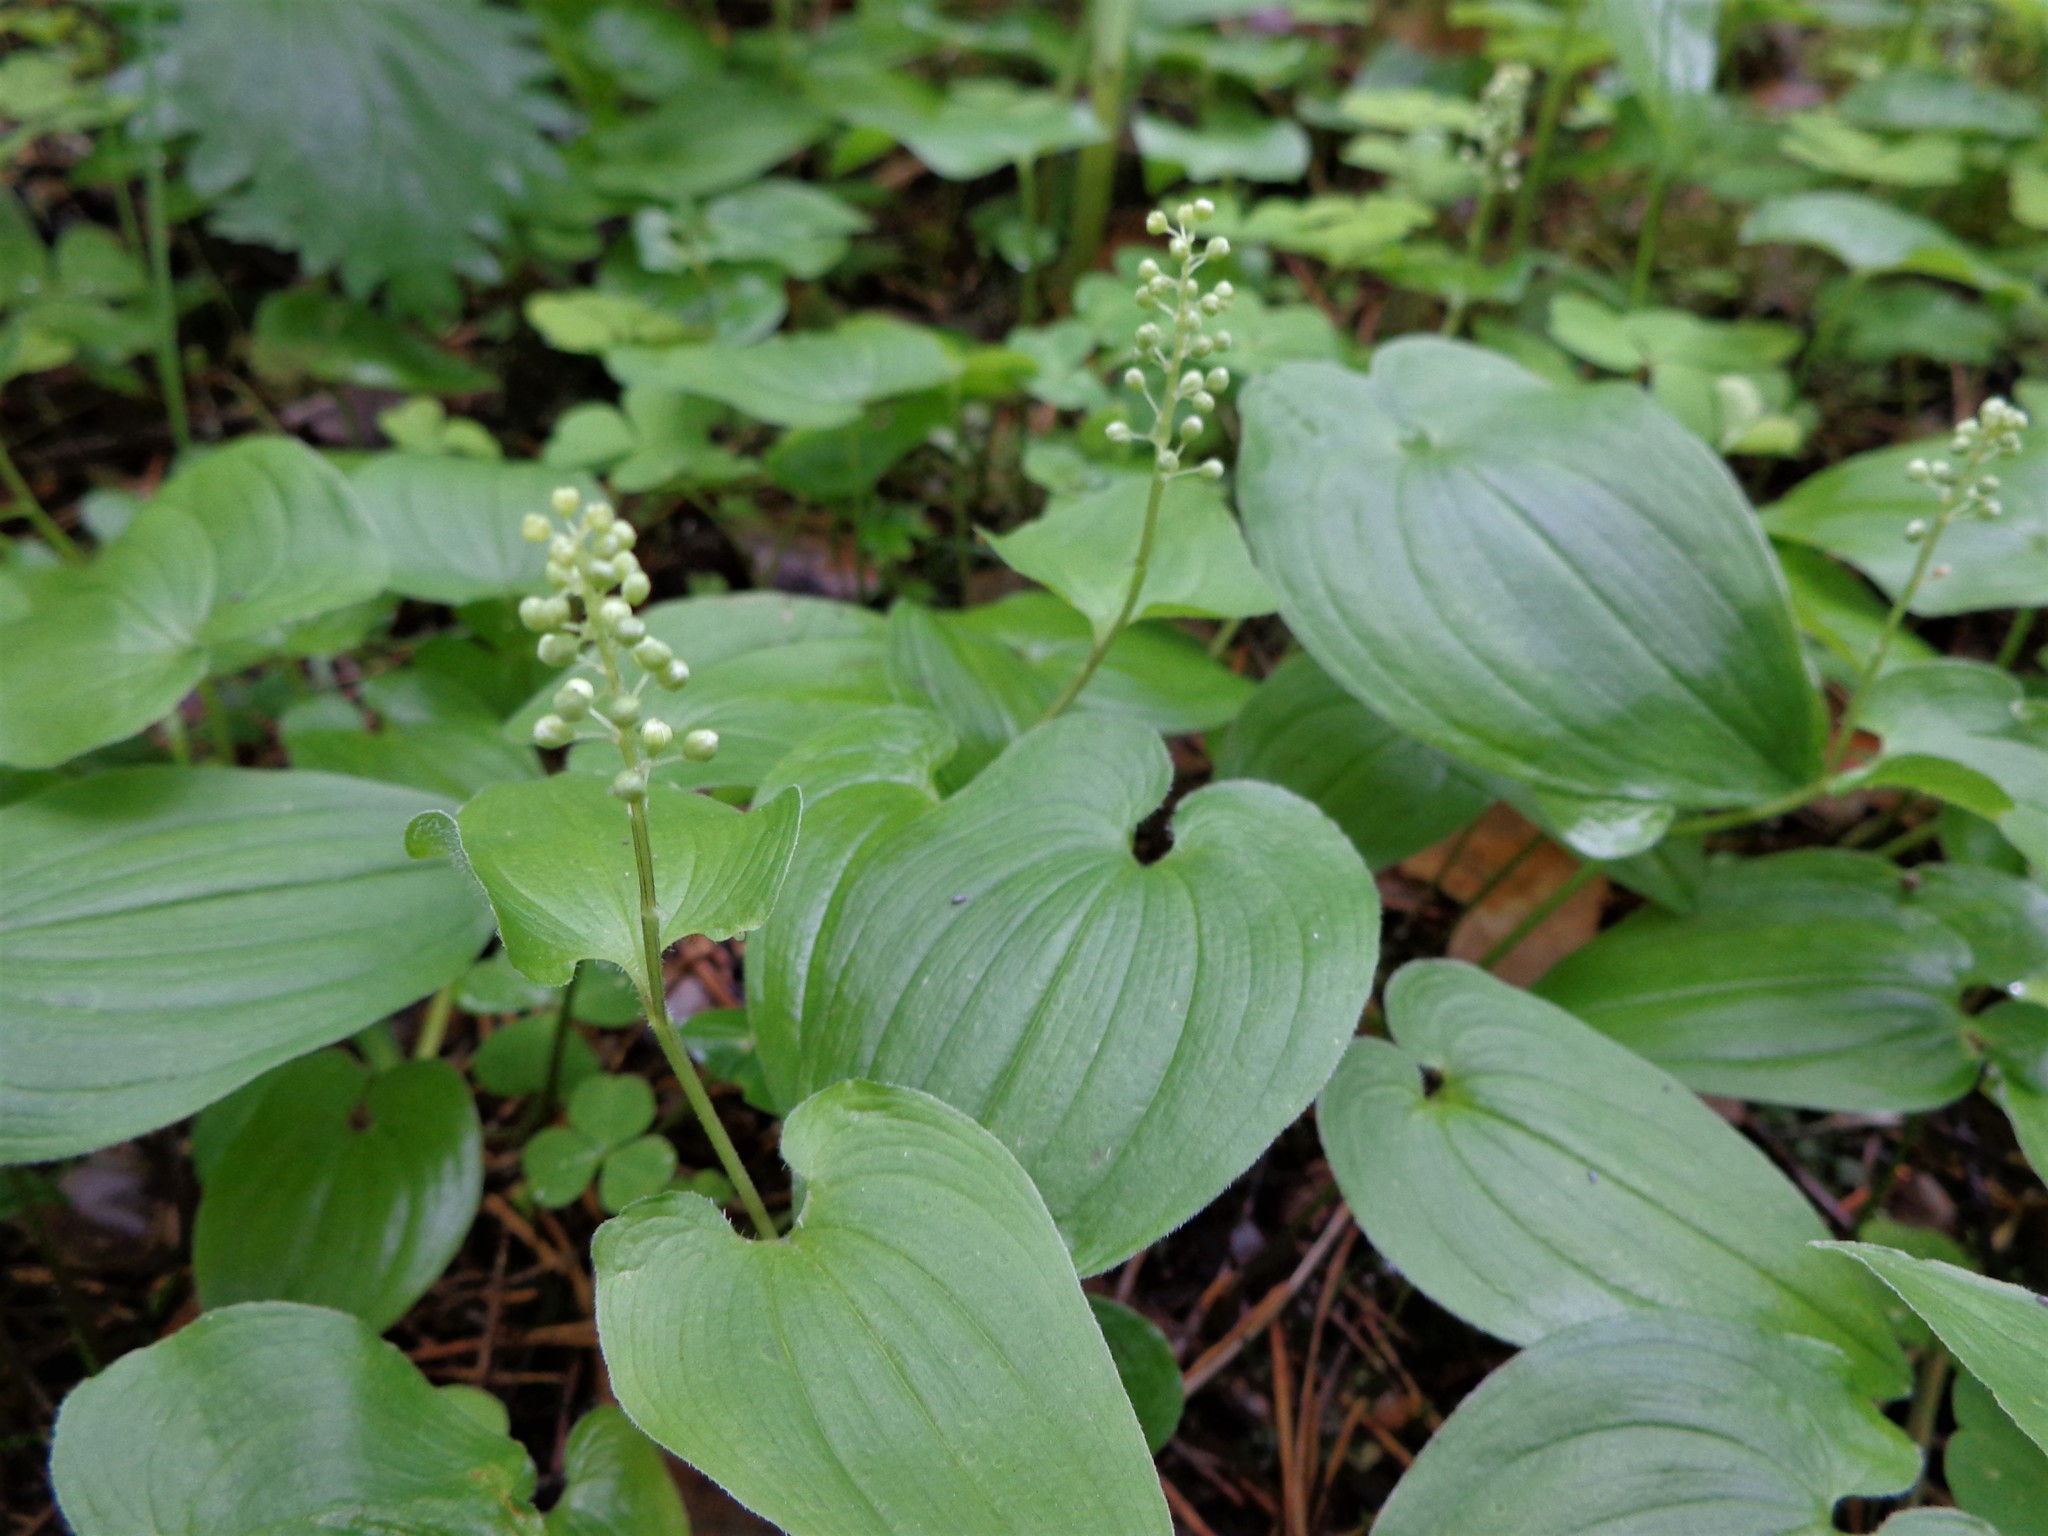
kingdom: Plantae
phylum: Tracheophyta
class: Liliopsida
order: Asparagales
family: Asparagaceae
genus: Maianthemum
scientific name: Maianthemum bifolium
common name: May lily
